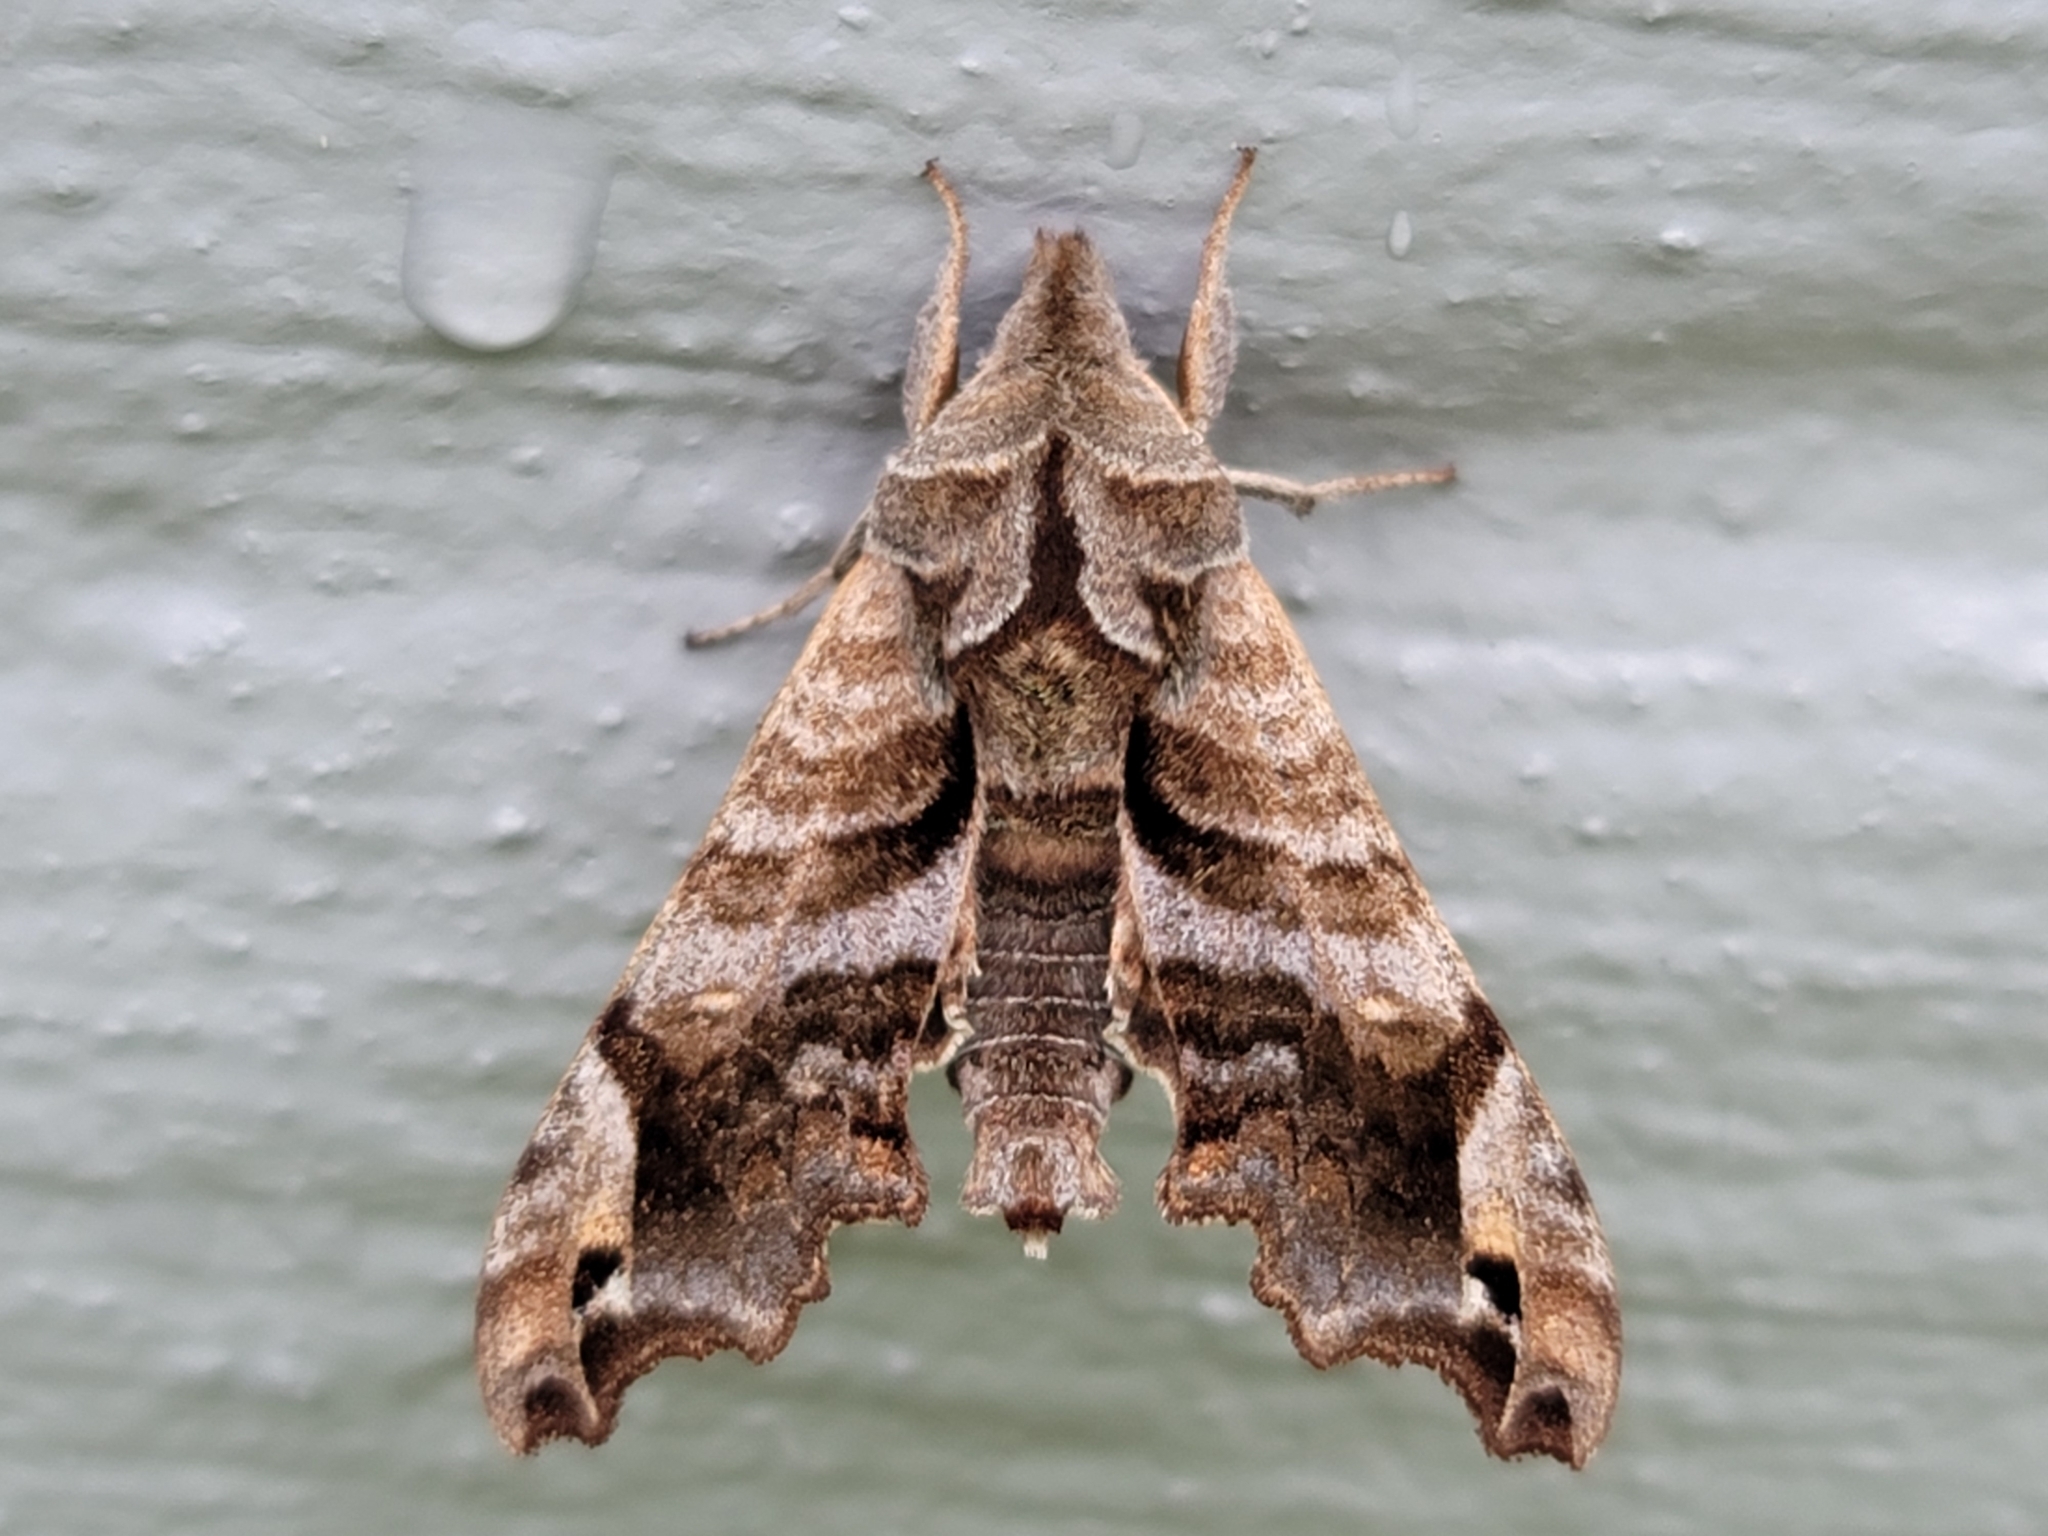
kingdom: Animalia
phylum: Arthropoda
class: Insecta
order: Lepidoptera
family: Sphingidae
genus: Deidamia
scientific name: Deidamia inscriptum
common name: Lettered sphinx
